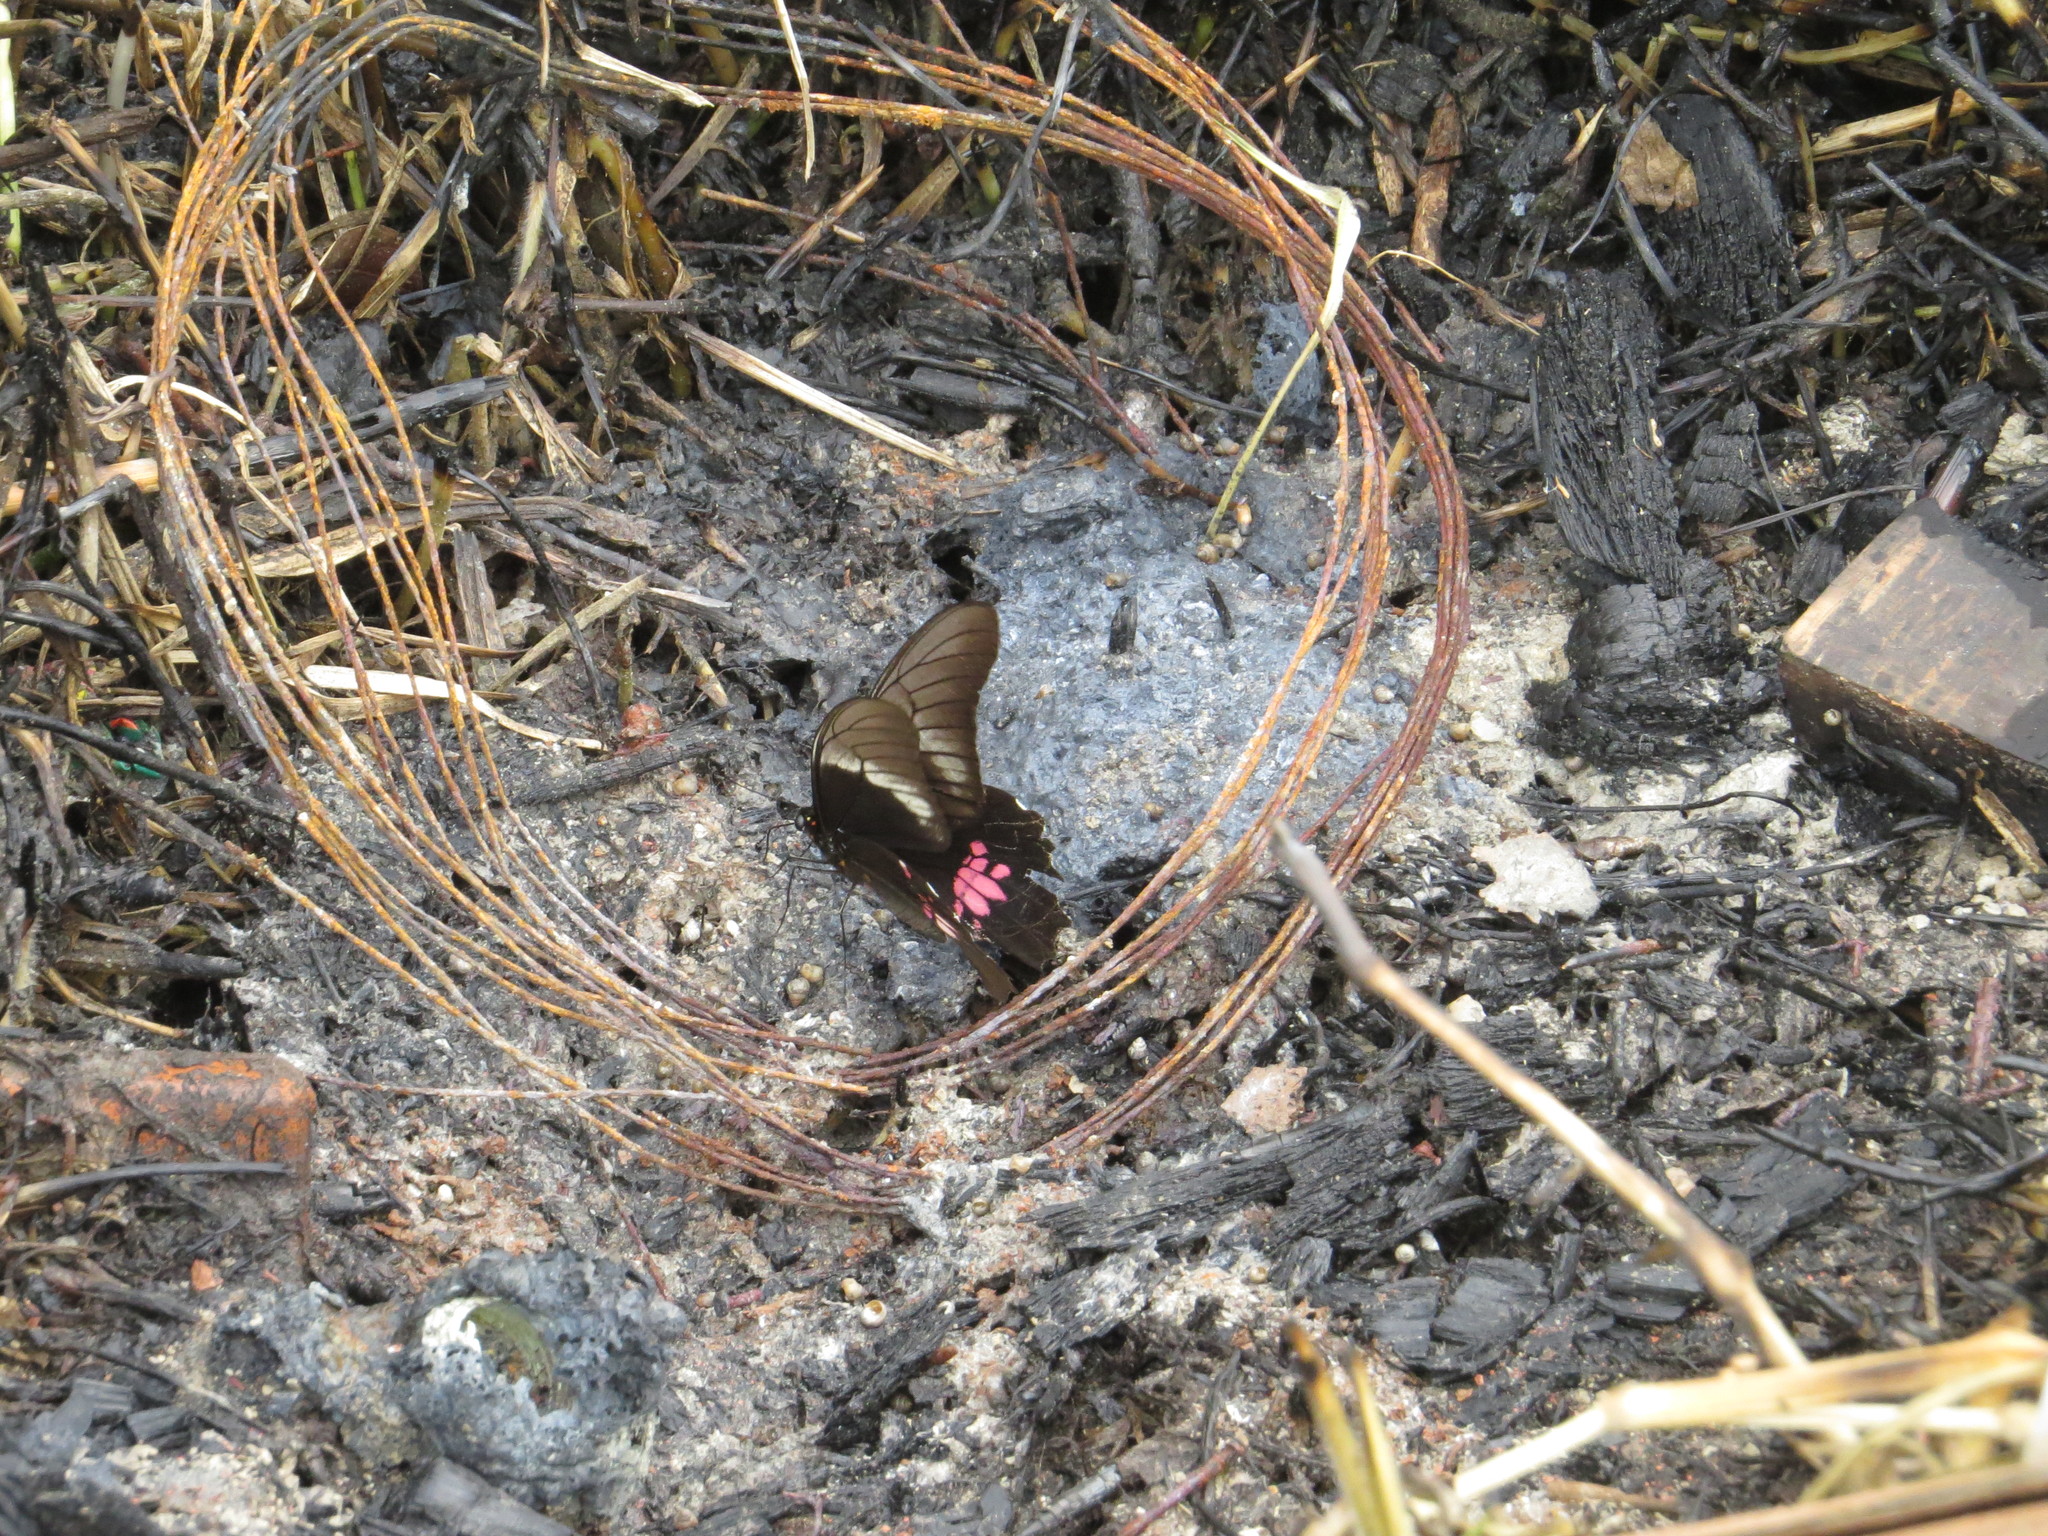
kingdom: Animalia
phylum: Arthropoda
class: Insecta
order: Lepidoptera
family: Papilionidae
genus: Papilio
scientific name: Papilio anchisiades
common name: Idaes swallowtail
